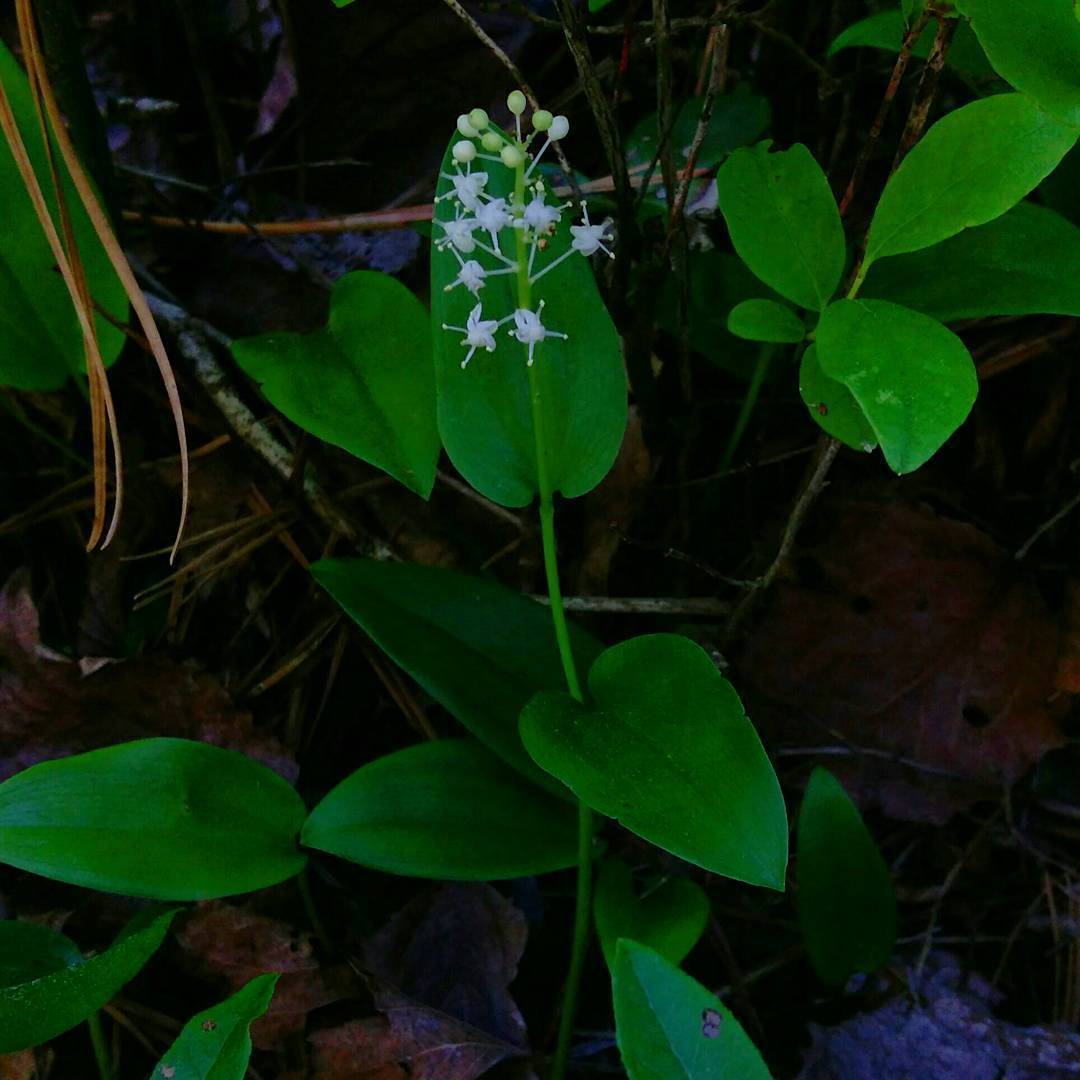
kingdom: Plantae
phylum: Tracheophyta
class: Liliopsida
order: Asparagales
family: Asparagaceae
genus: Maianthemum
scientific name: Maianthemum canadense
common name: False lily-of-the-valley
